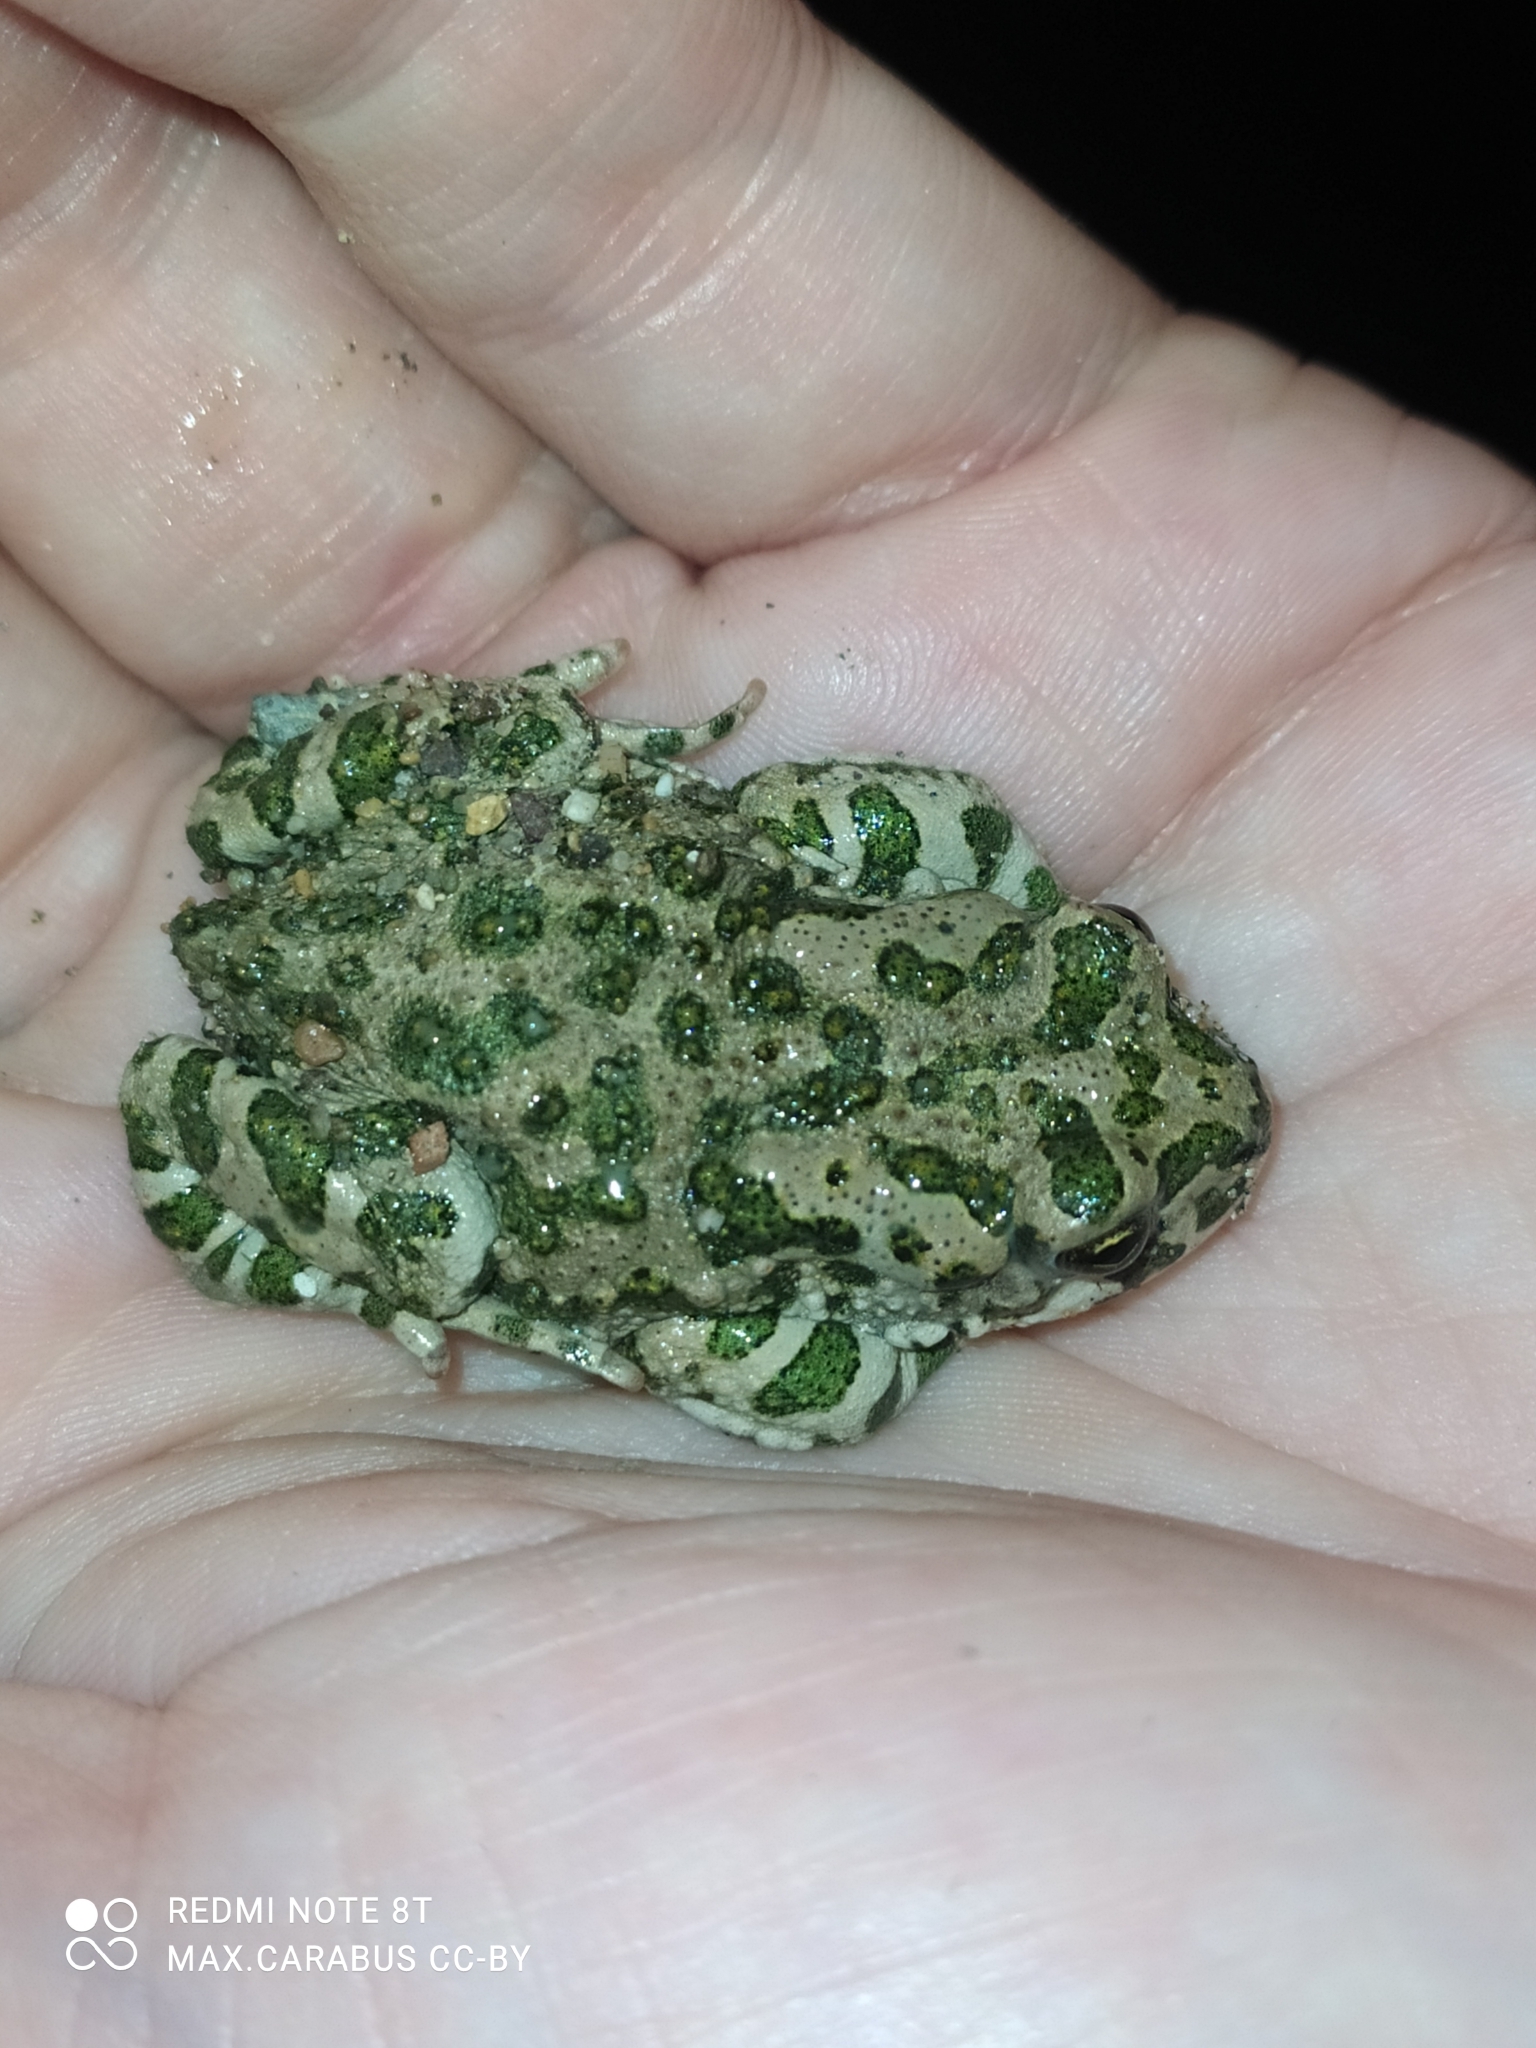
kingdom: Animalia
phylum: Chordata
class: Amphibia
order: Anura
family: Bufonidae
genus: Bufotes
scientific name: Bufotes viridis
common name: European green toad
